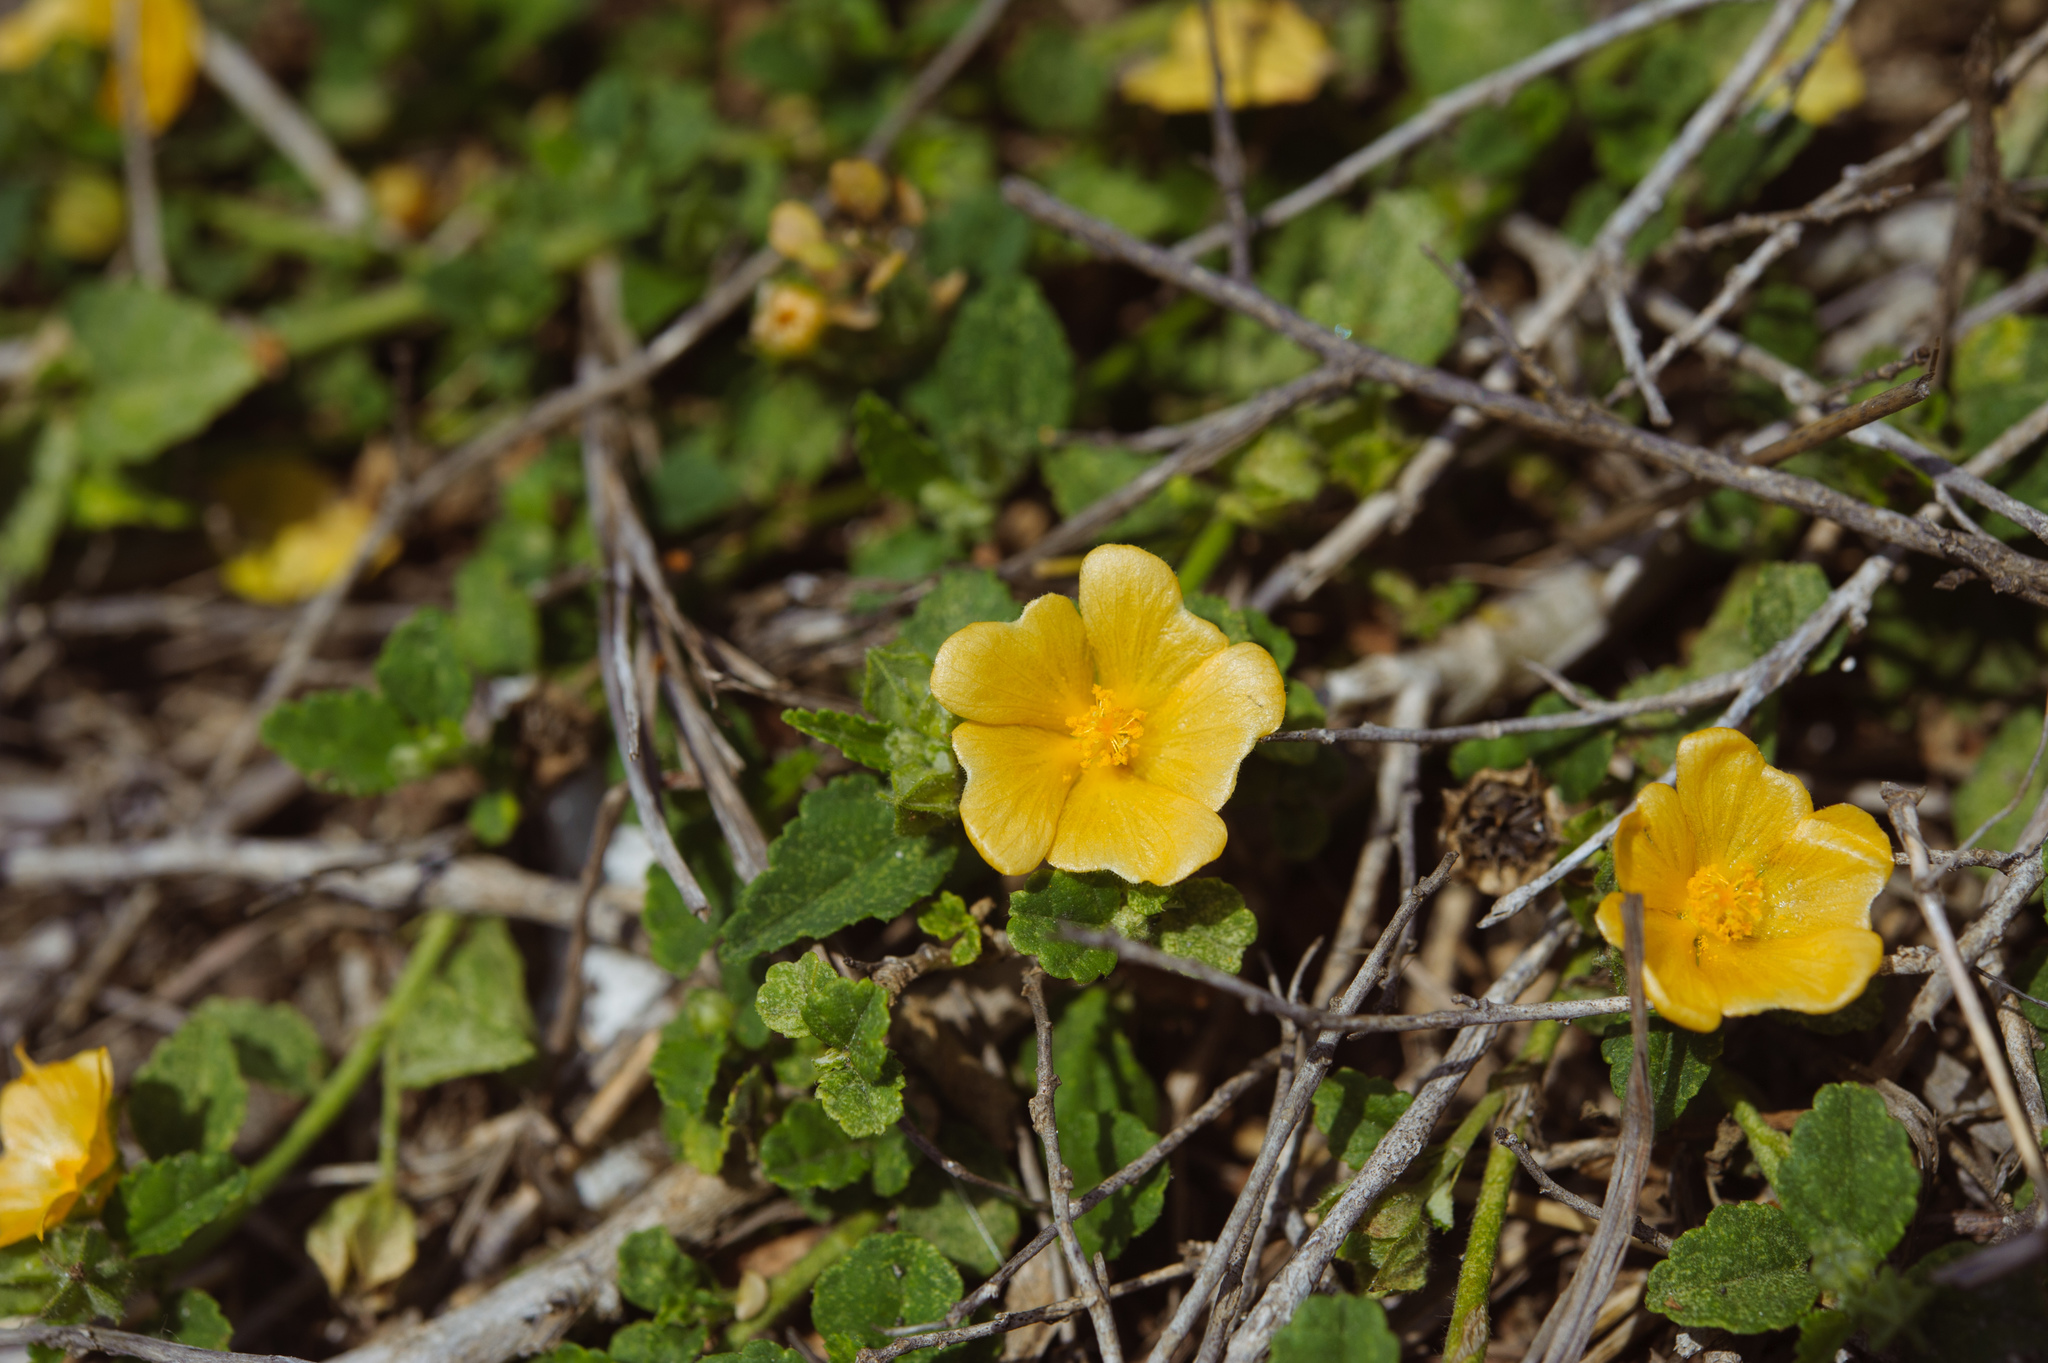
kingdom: Plantae
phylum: Tracheophyta
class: Magnoliopsida
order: Malvales
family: Malvaceae
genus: Sida
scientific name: Sida rhombifolia
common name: Queensland-hemp
